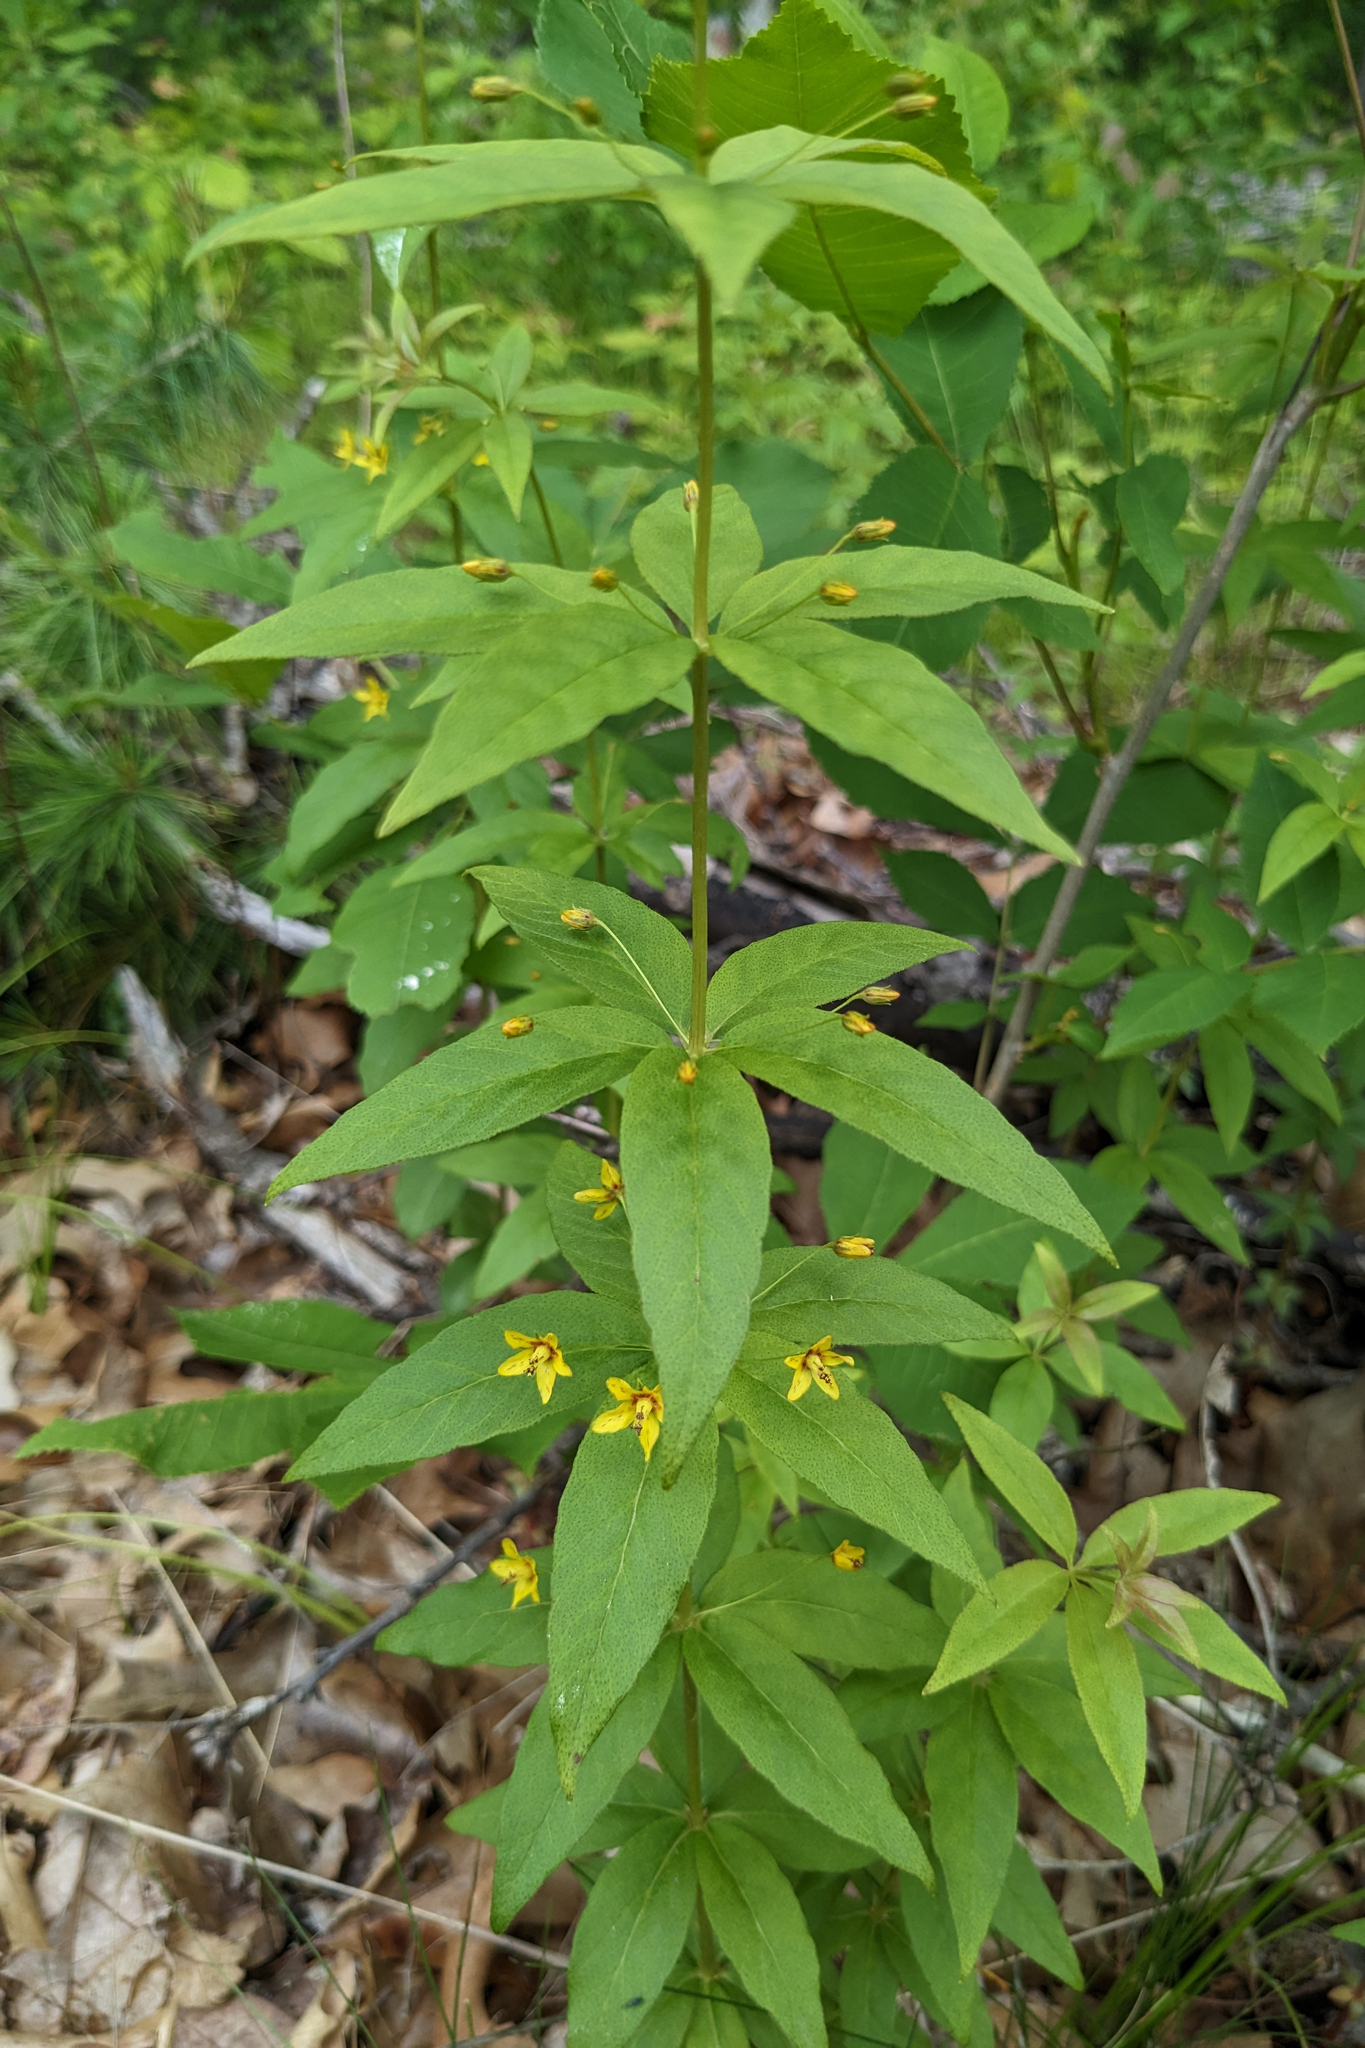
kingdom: Plantae
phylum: Tracheophyta
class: Magnoliopsida
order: Ericales
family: Primulaceae
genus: Lysimachia
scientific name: Lysimachia quadrifolia
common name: Whorled loosestrife
